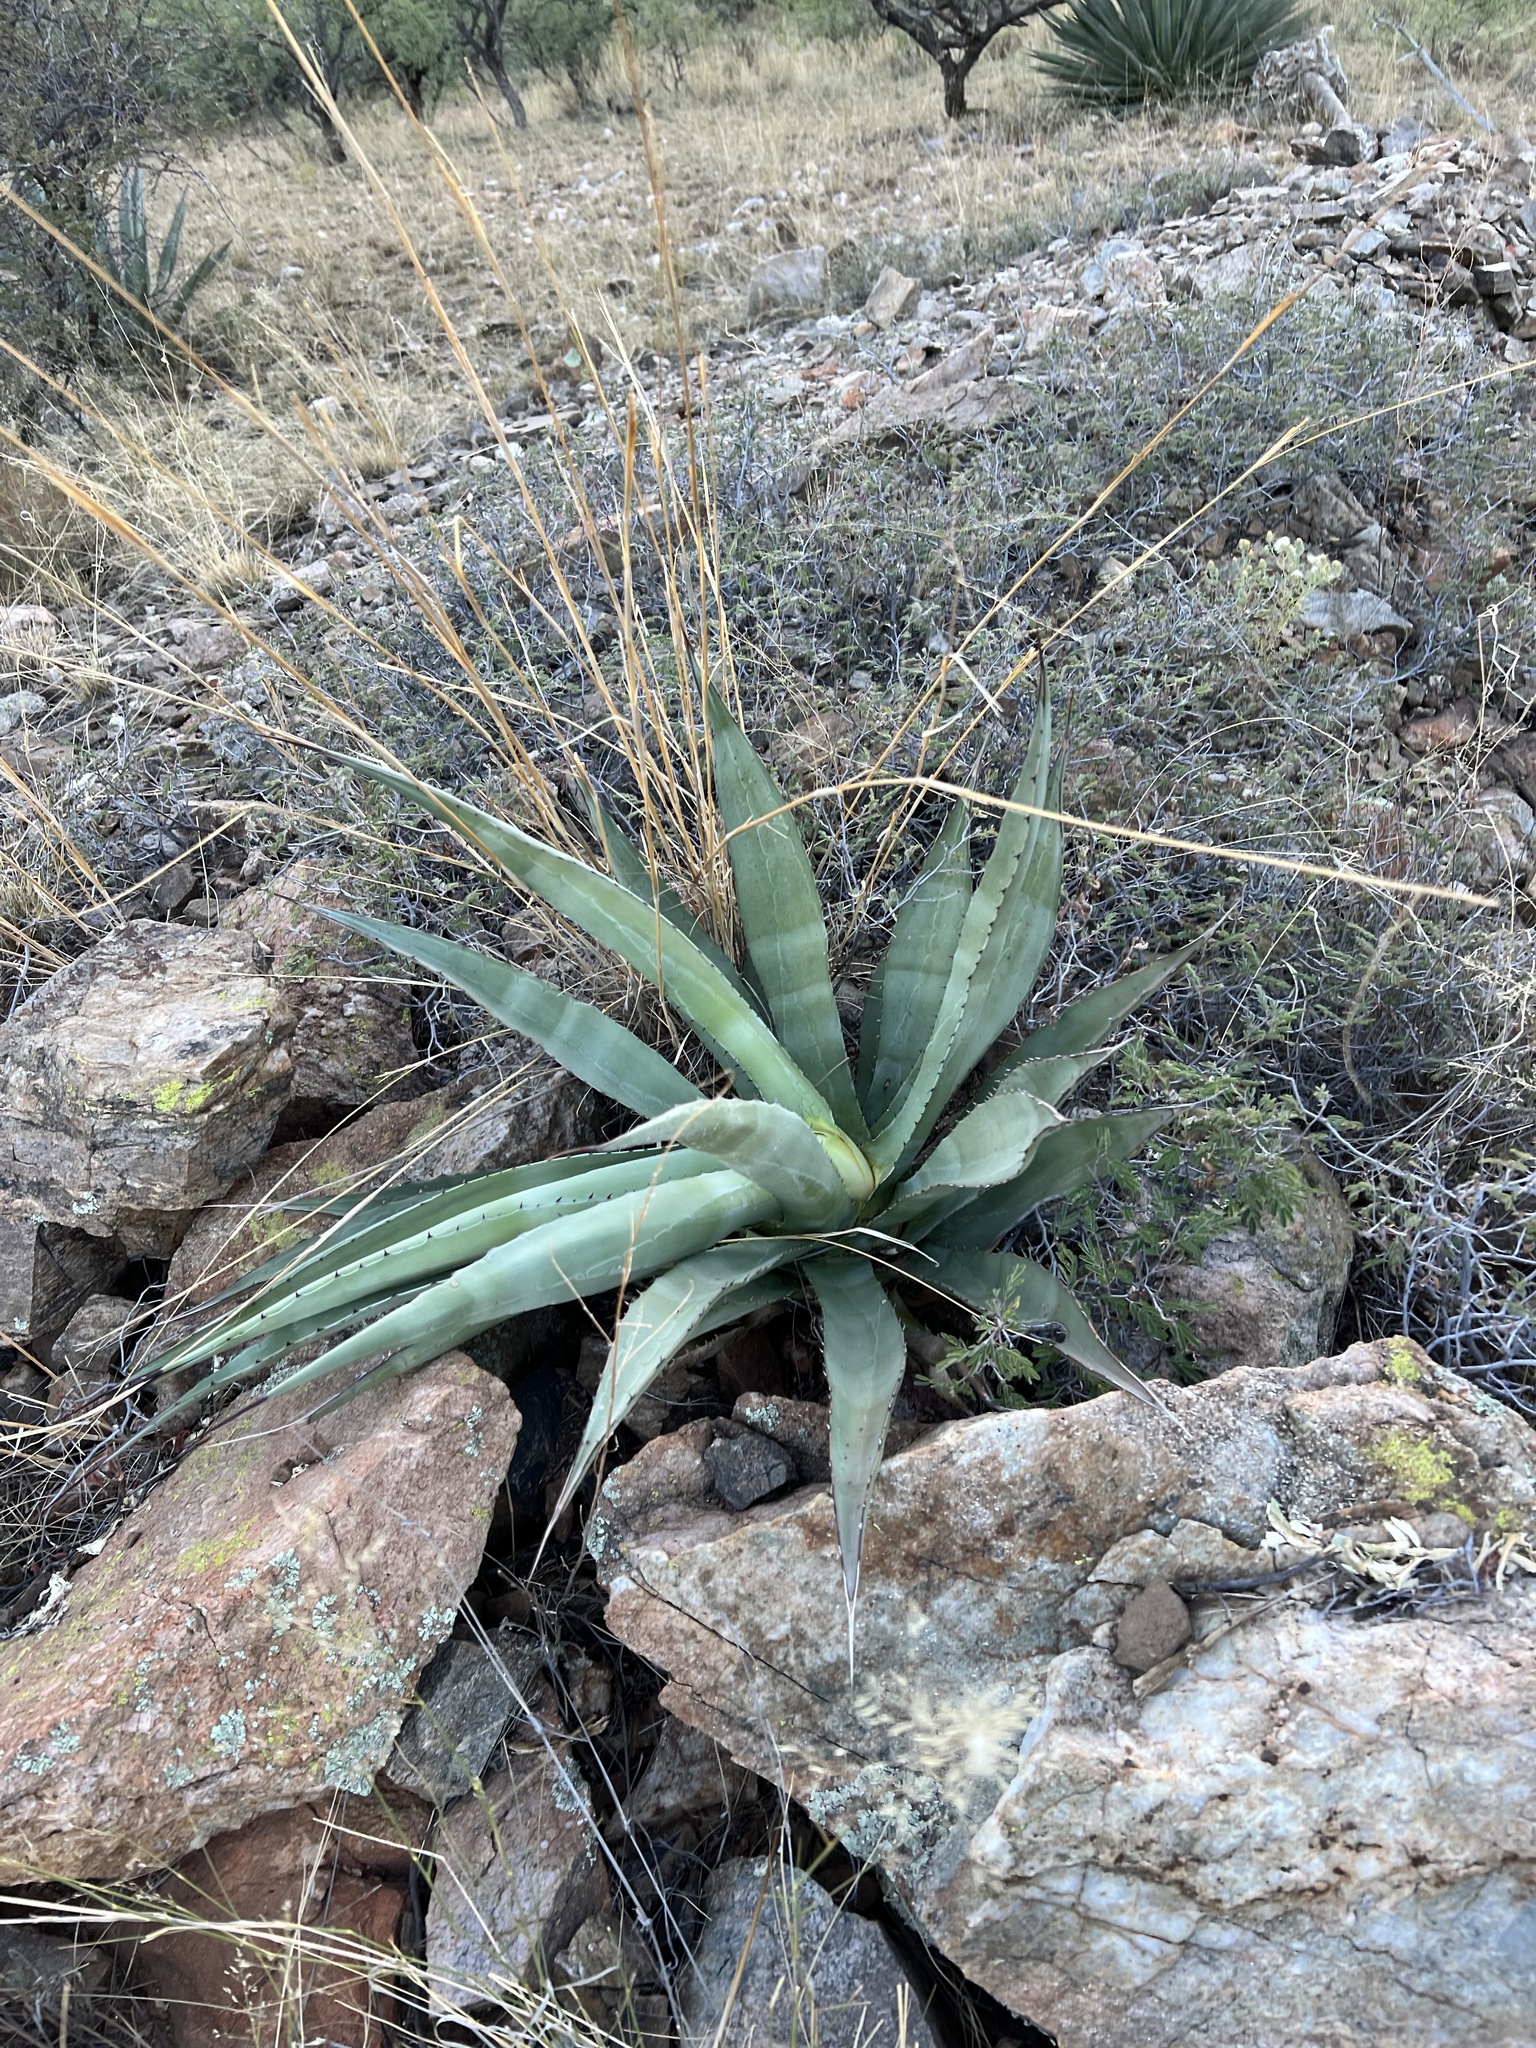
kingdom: Plantae
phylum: Tracheophyta
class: Liliopsida
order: Asparagales
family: Asparagaceae
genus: Agave
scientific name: Agave palmeri
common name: Palmer agave
